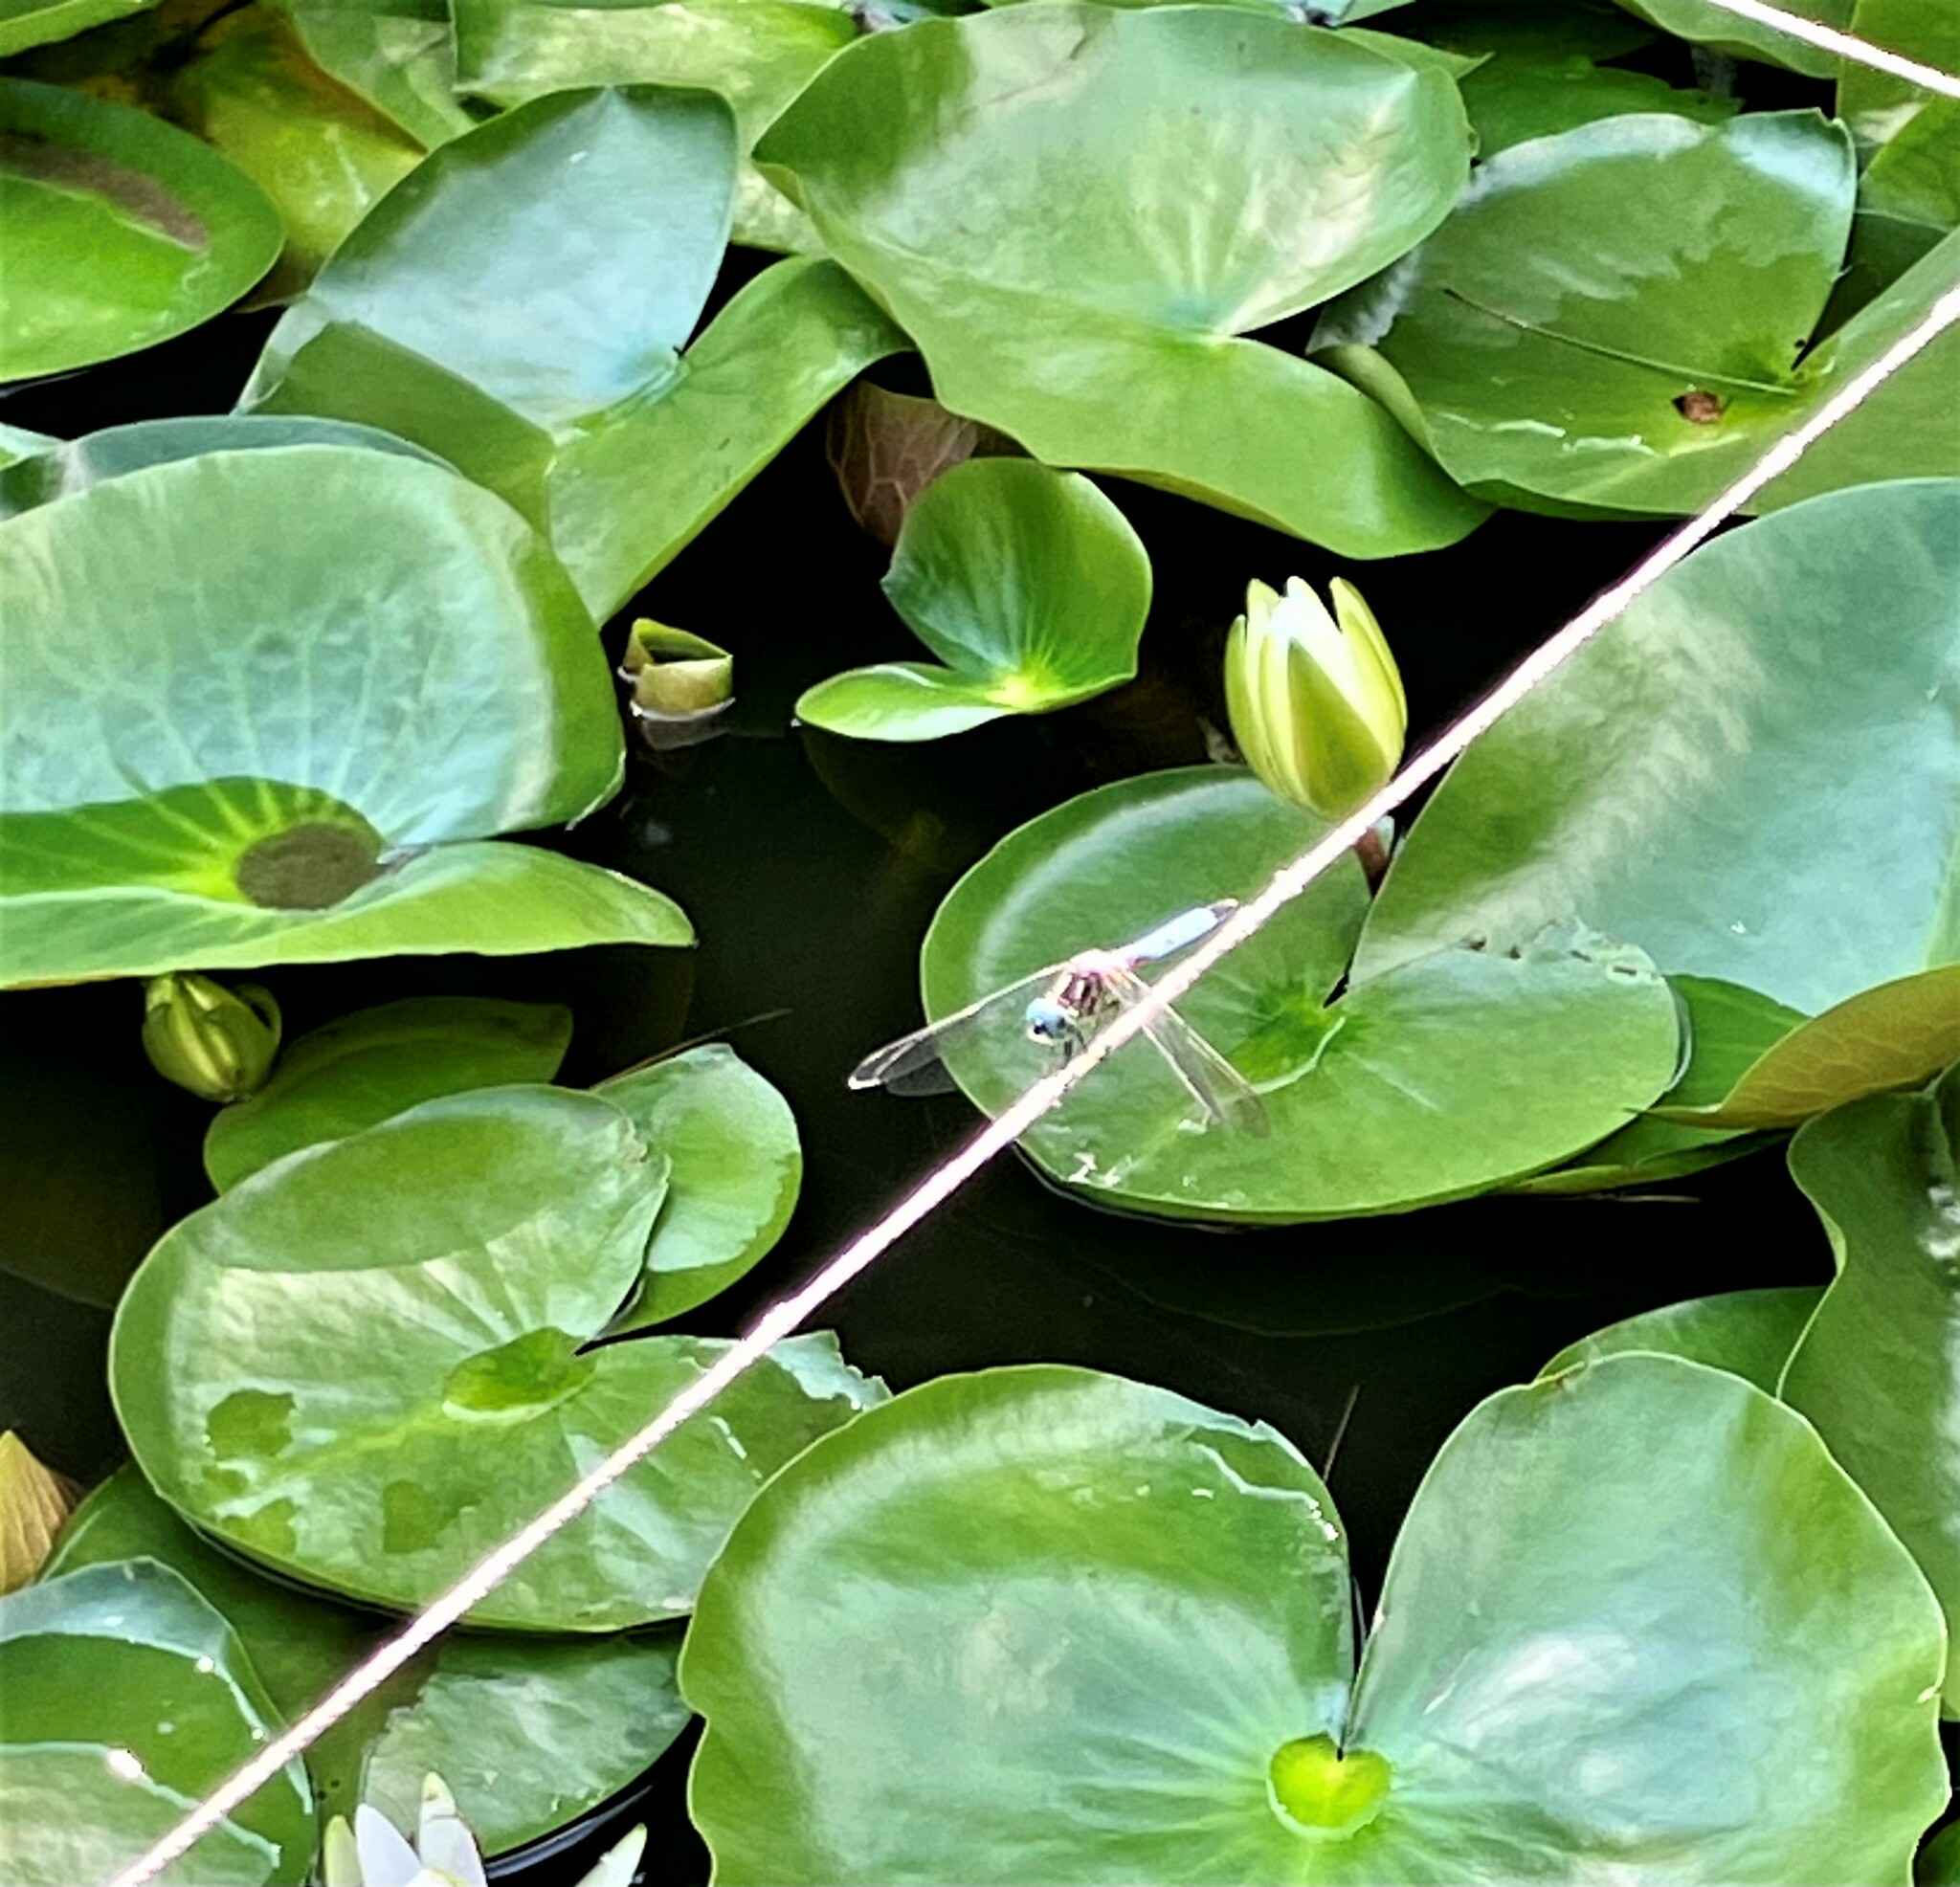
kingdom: Animalia
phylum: Arthropoda
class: Insecta
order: Odonata
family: Libellulidae
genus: Pachydiplax
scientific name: Pachydiplax longipennis
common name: Blue dasher
